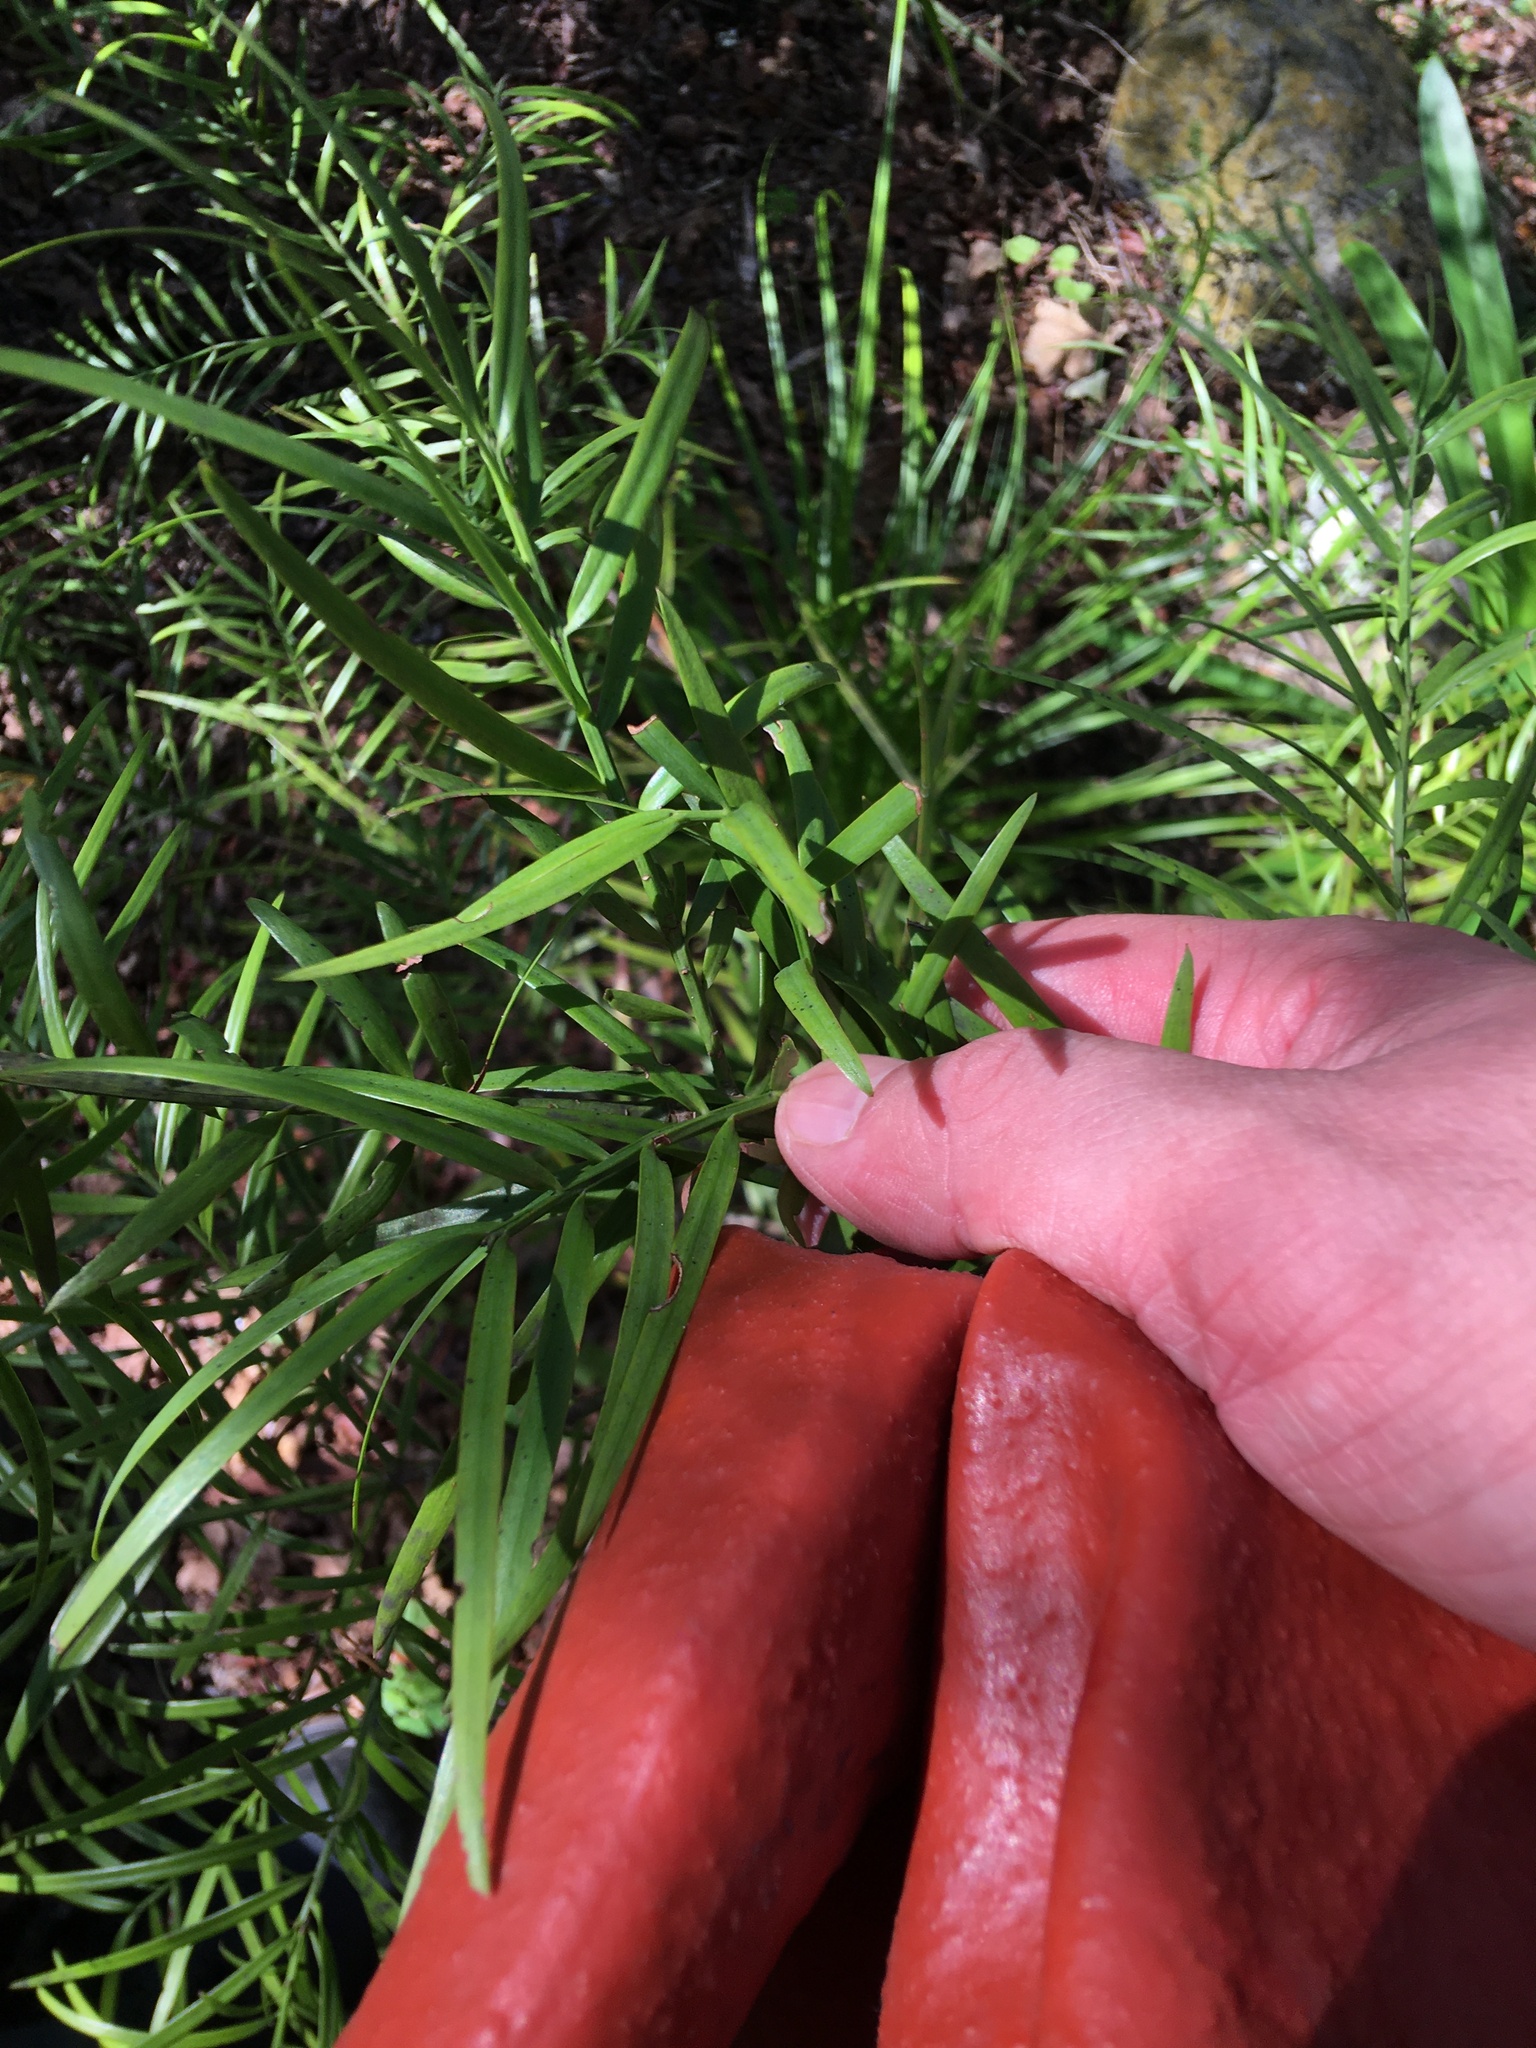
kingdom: Plantae
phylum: Tracheophyta
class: Pinopsida
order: Pinales
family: Podocarpaceae
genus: Afrocarpus
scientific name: Afrocarpus falcatus
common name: Bastard yellowwood
